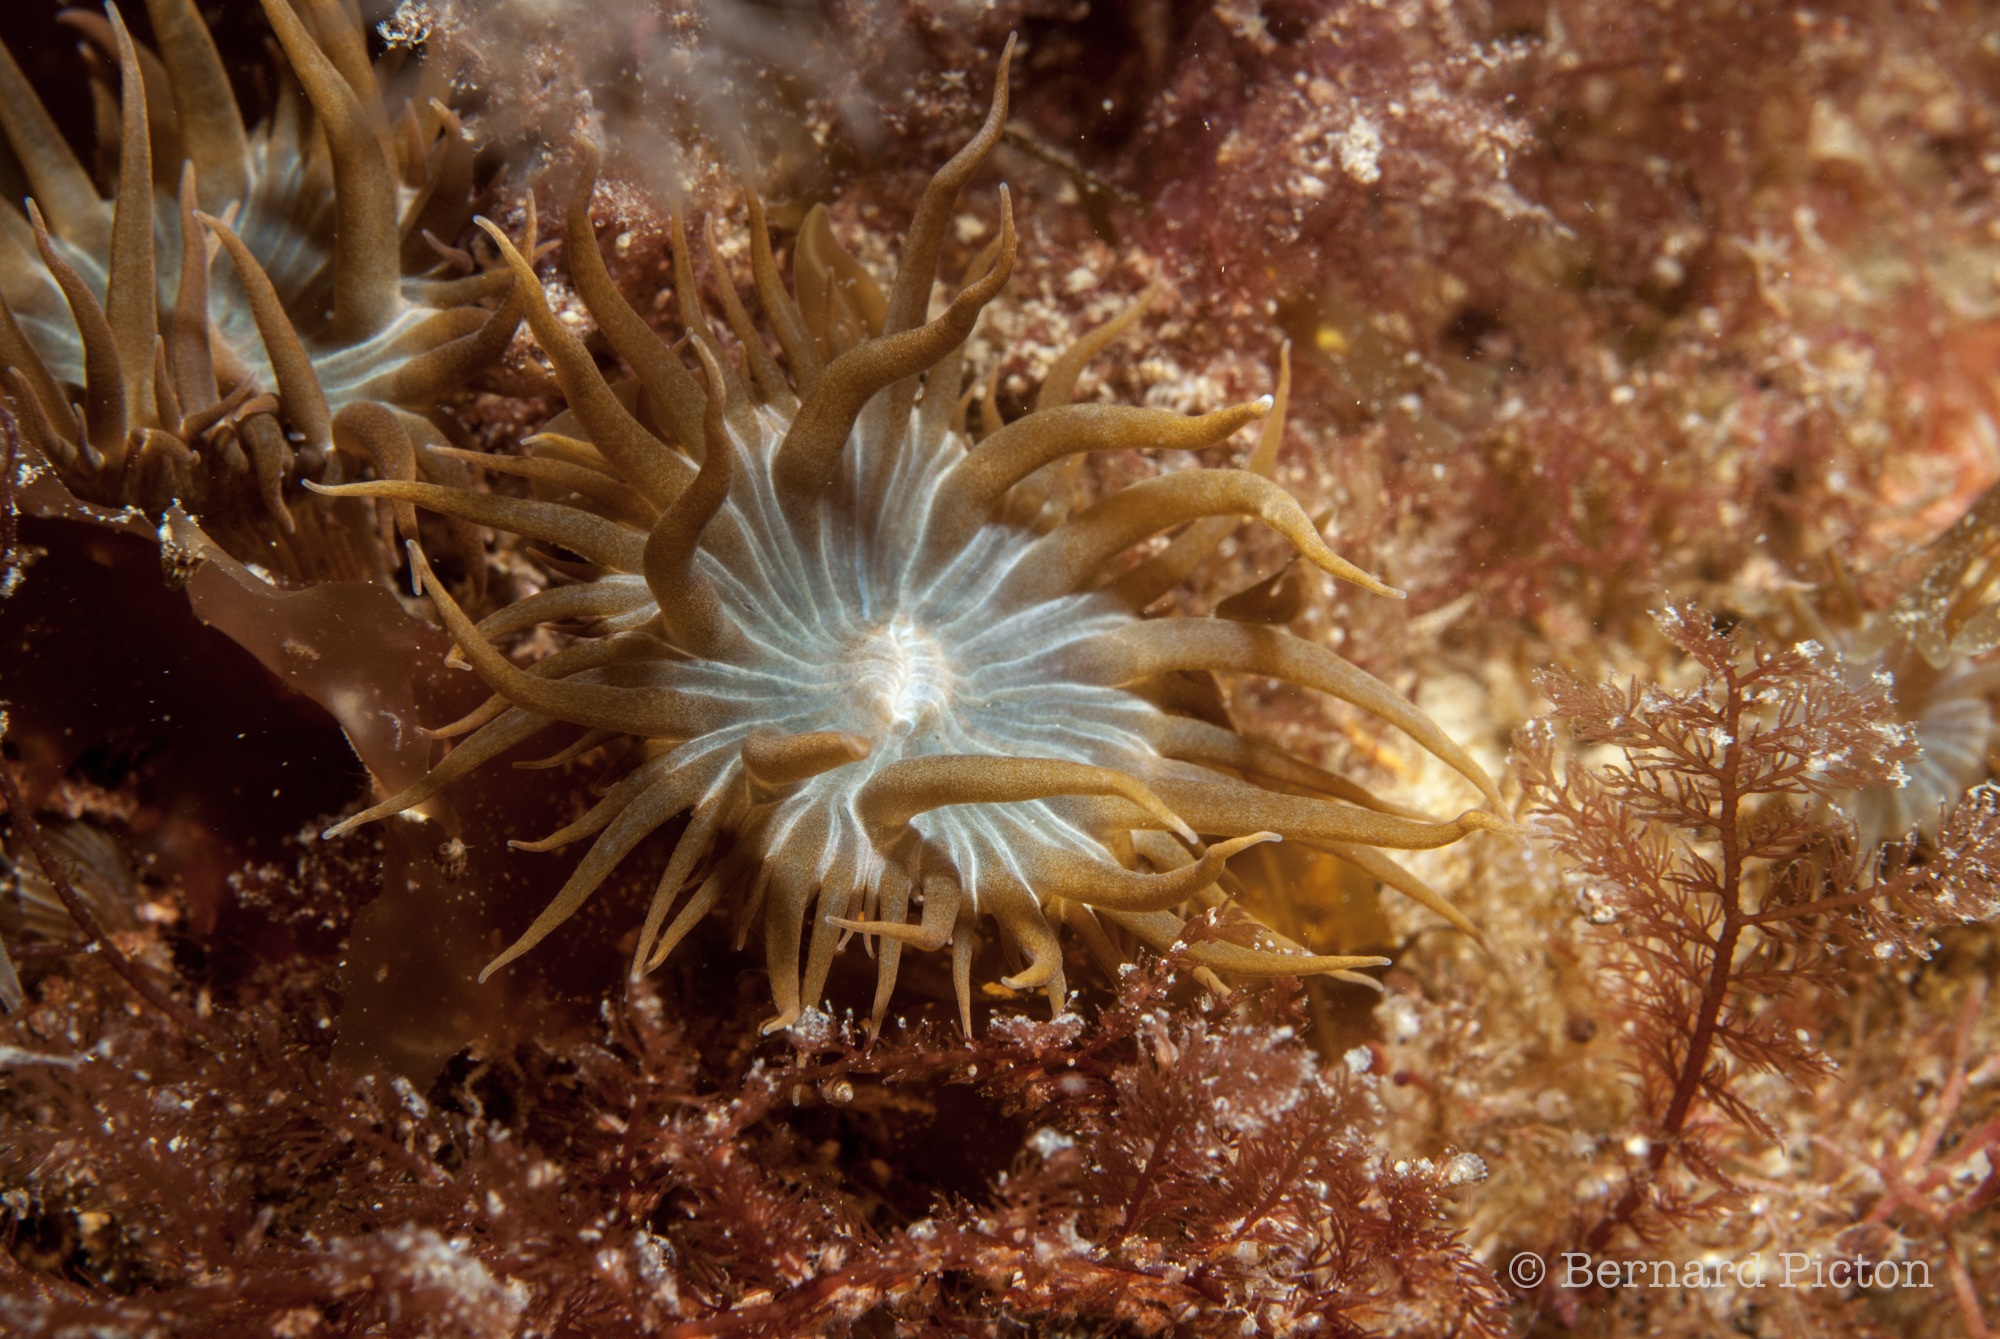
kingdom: Animalia
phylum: Cnidaria
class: Anthozoa
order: Actiniaria
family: Aiptasiidae
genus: Aiptasia
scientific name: Aiptasia couchii
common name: Trumpet anemone
